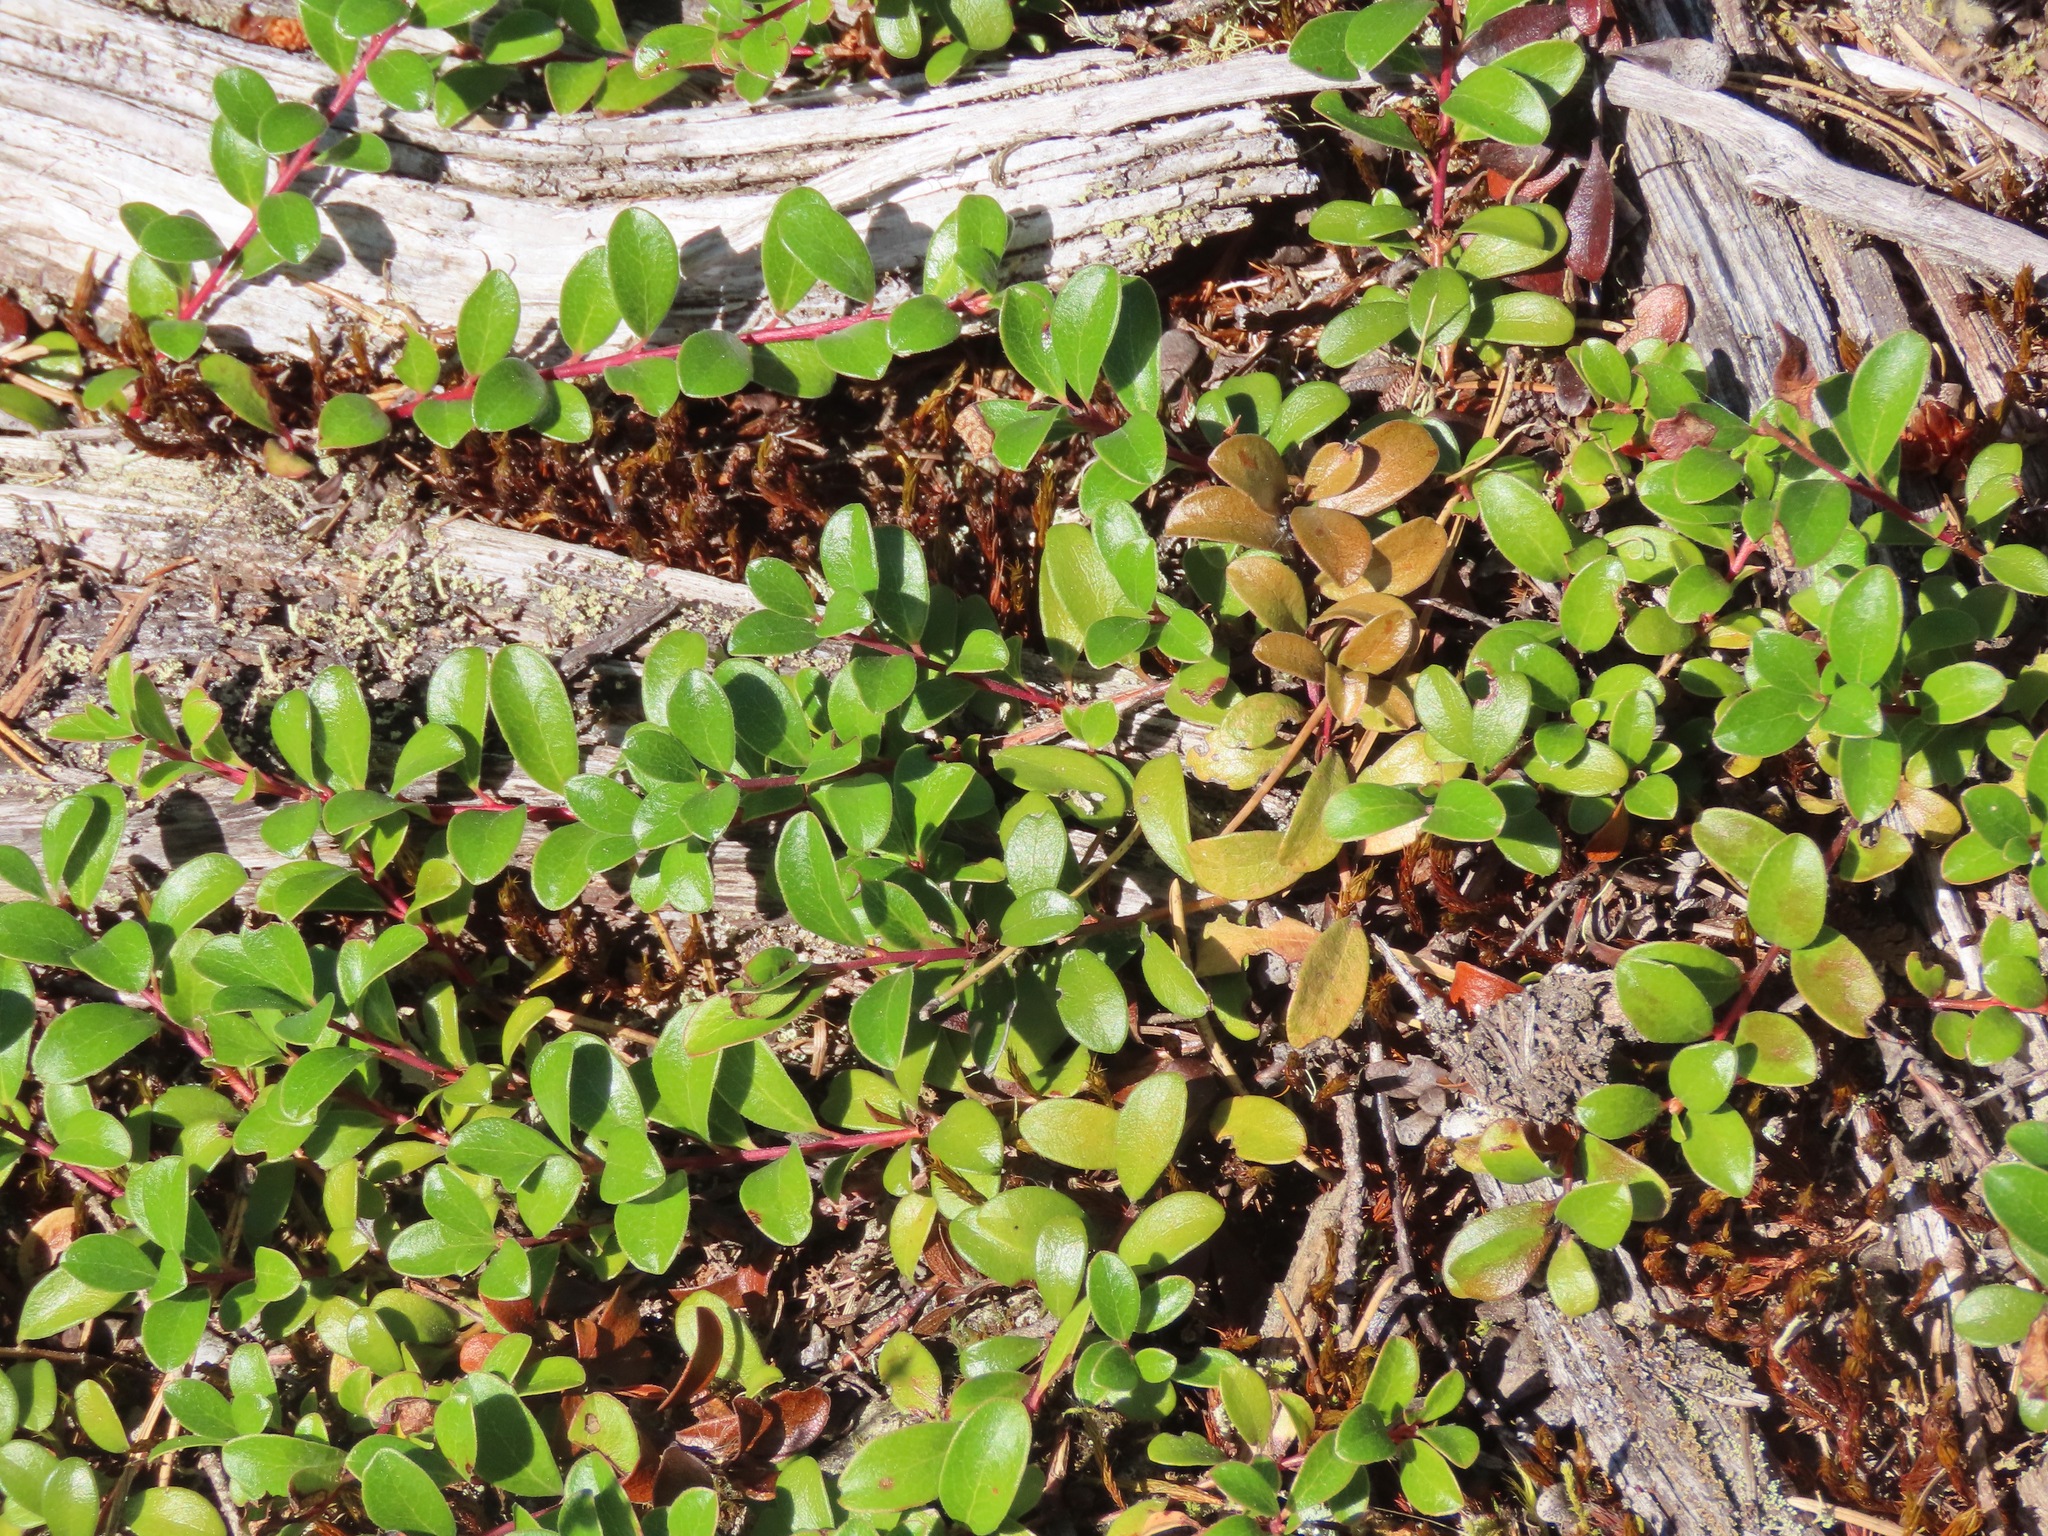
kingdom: Plantae
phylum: Tracheophyta
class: Magnoliopsida
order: Ericales
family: Ericaceae
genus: Arctostaphylos
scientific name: Arctostaphylos uva-ursi
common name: Bearberry
